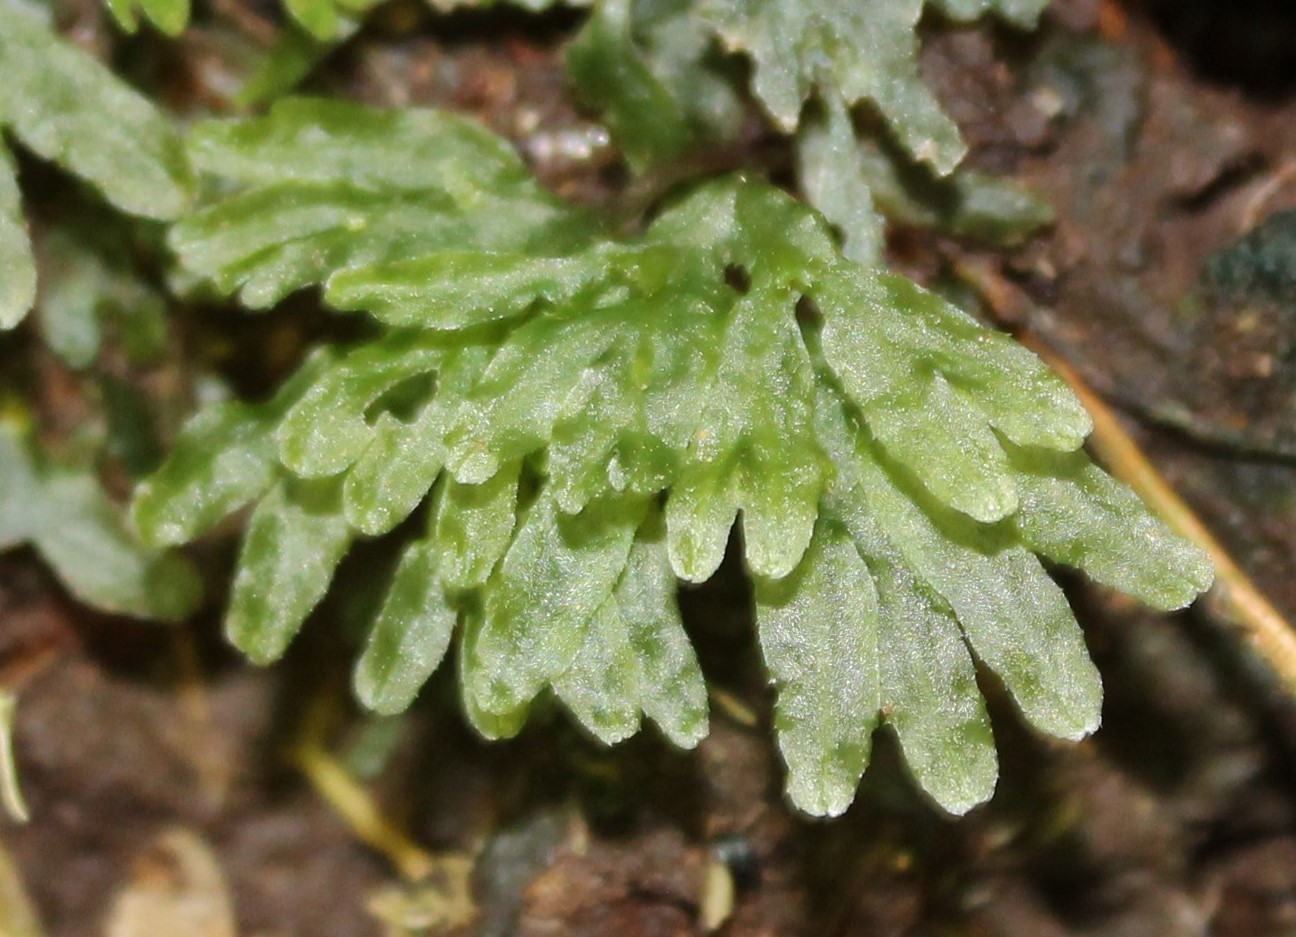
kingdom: Plantae
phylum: Marchantiophyta
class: Jungermanniopsida
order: Pallaviciniales
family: Pallaviciniaceae
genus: Symphyogyna
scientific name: Symphyogyna hymenophyllum
